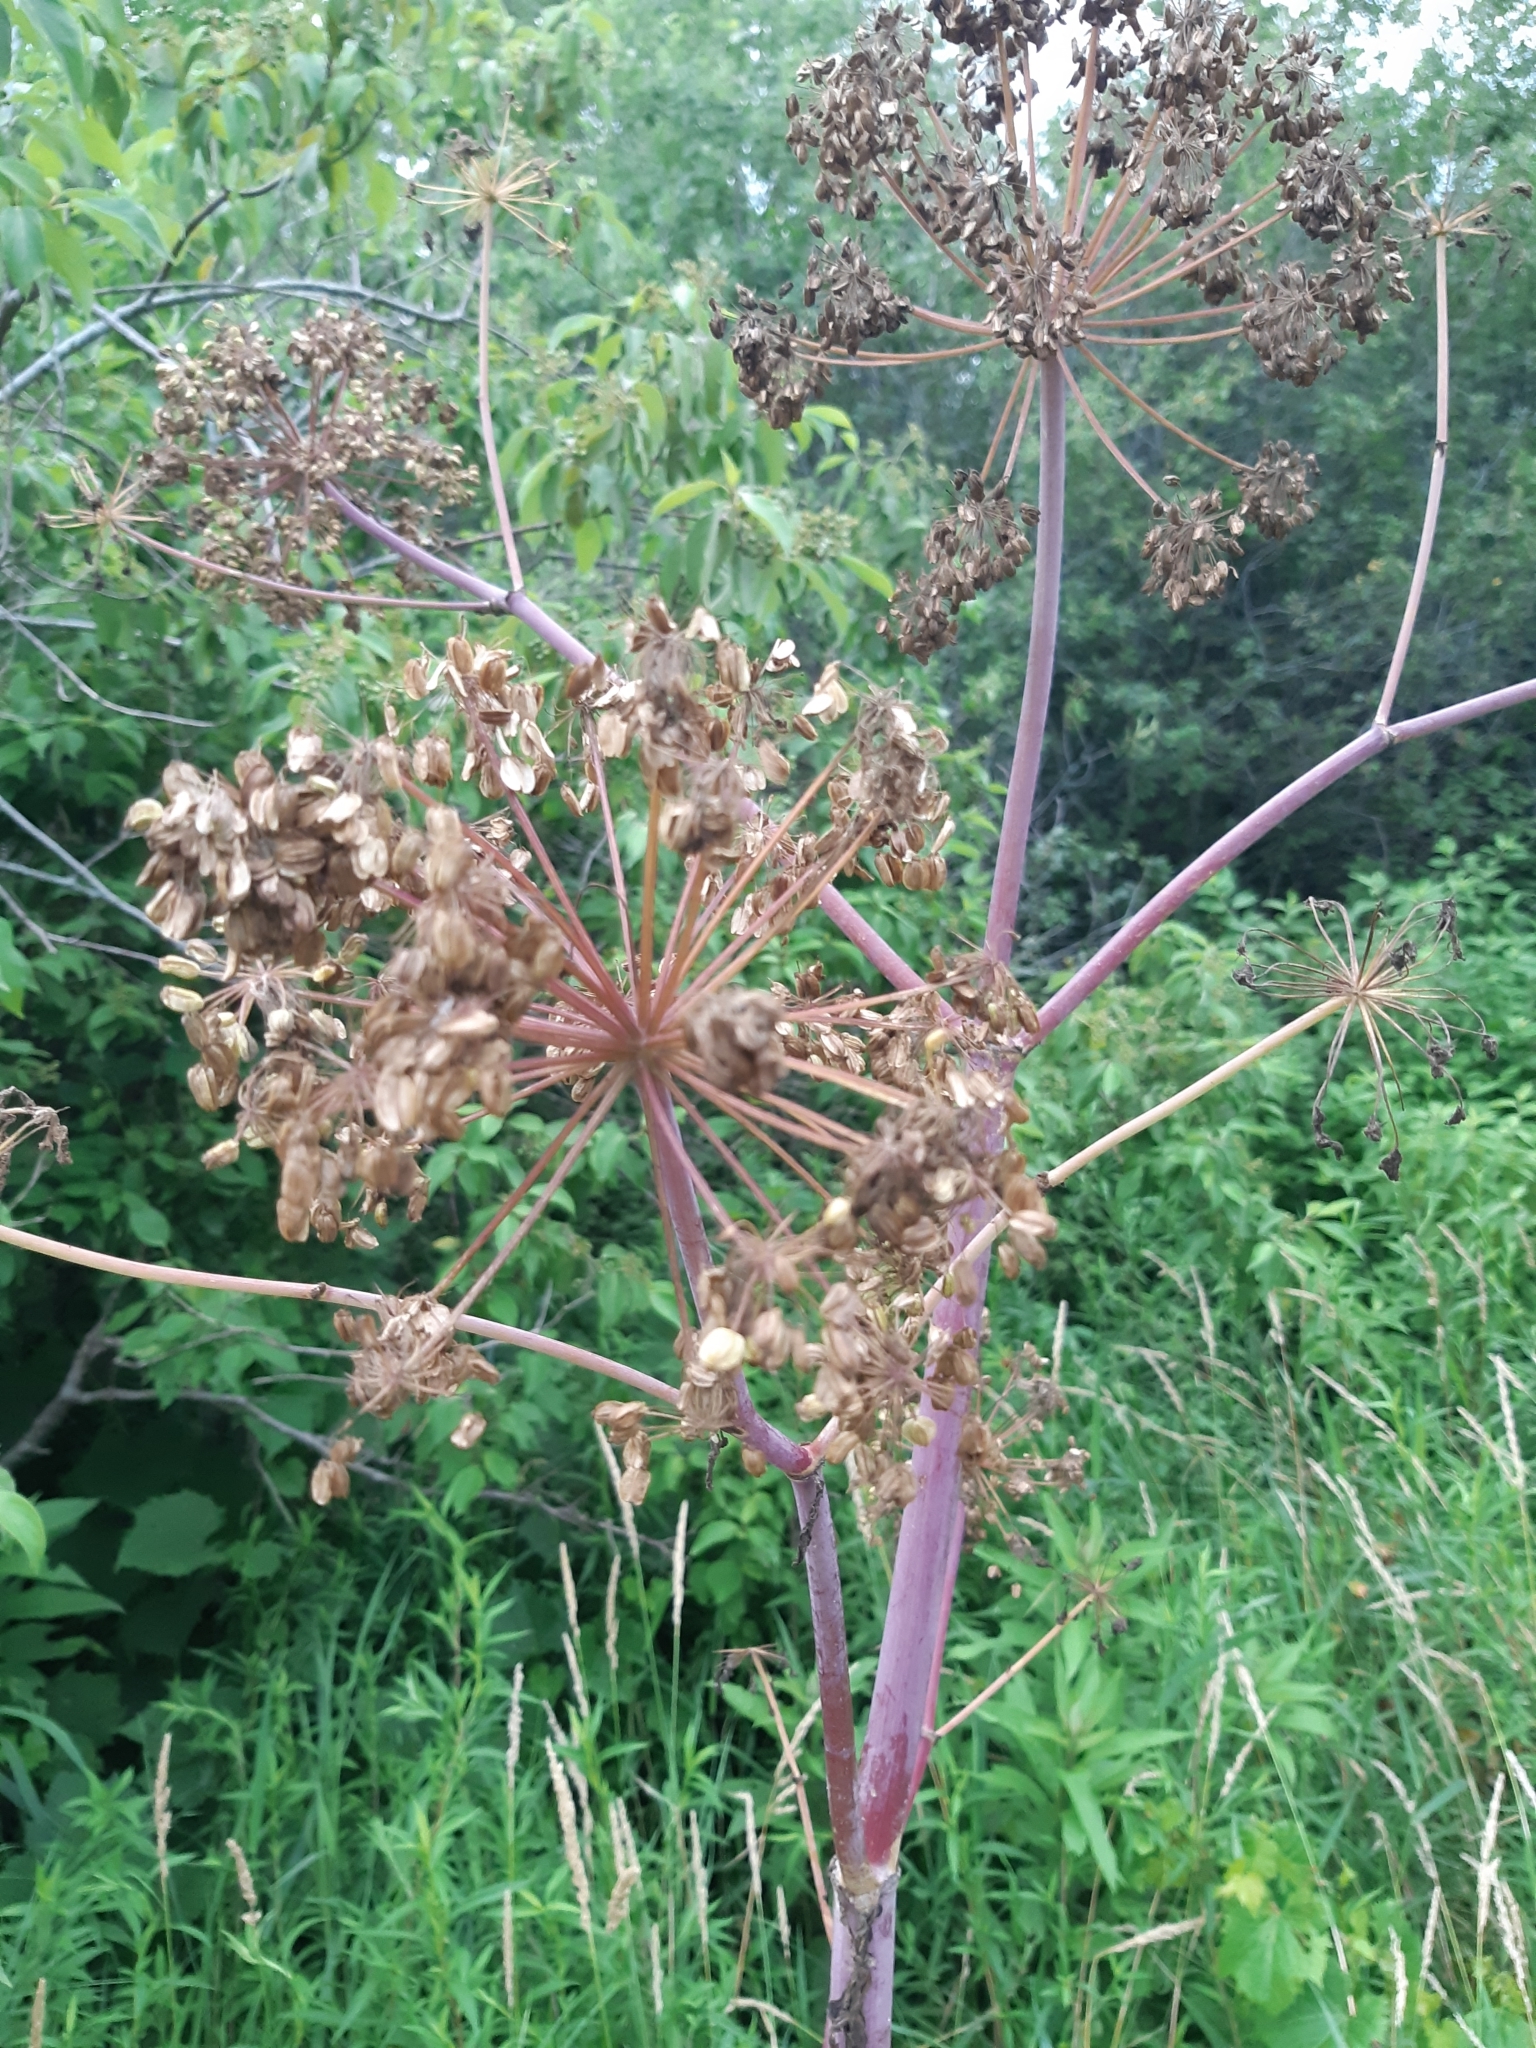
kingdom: Plantae
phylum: Tracheophyta
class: Magnoliopsida
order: Apiales
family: Apiaceae
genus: Angelica
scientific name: Angelica atropurpurea
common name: Great angelica
